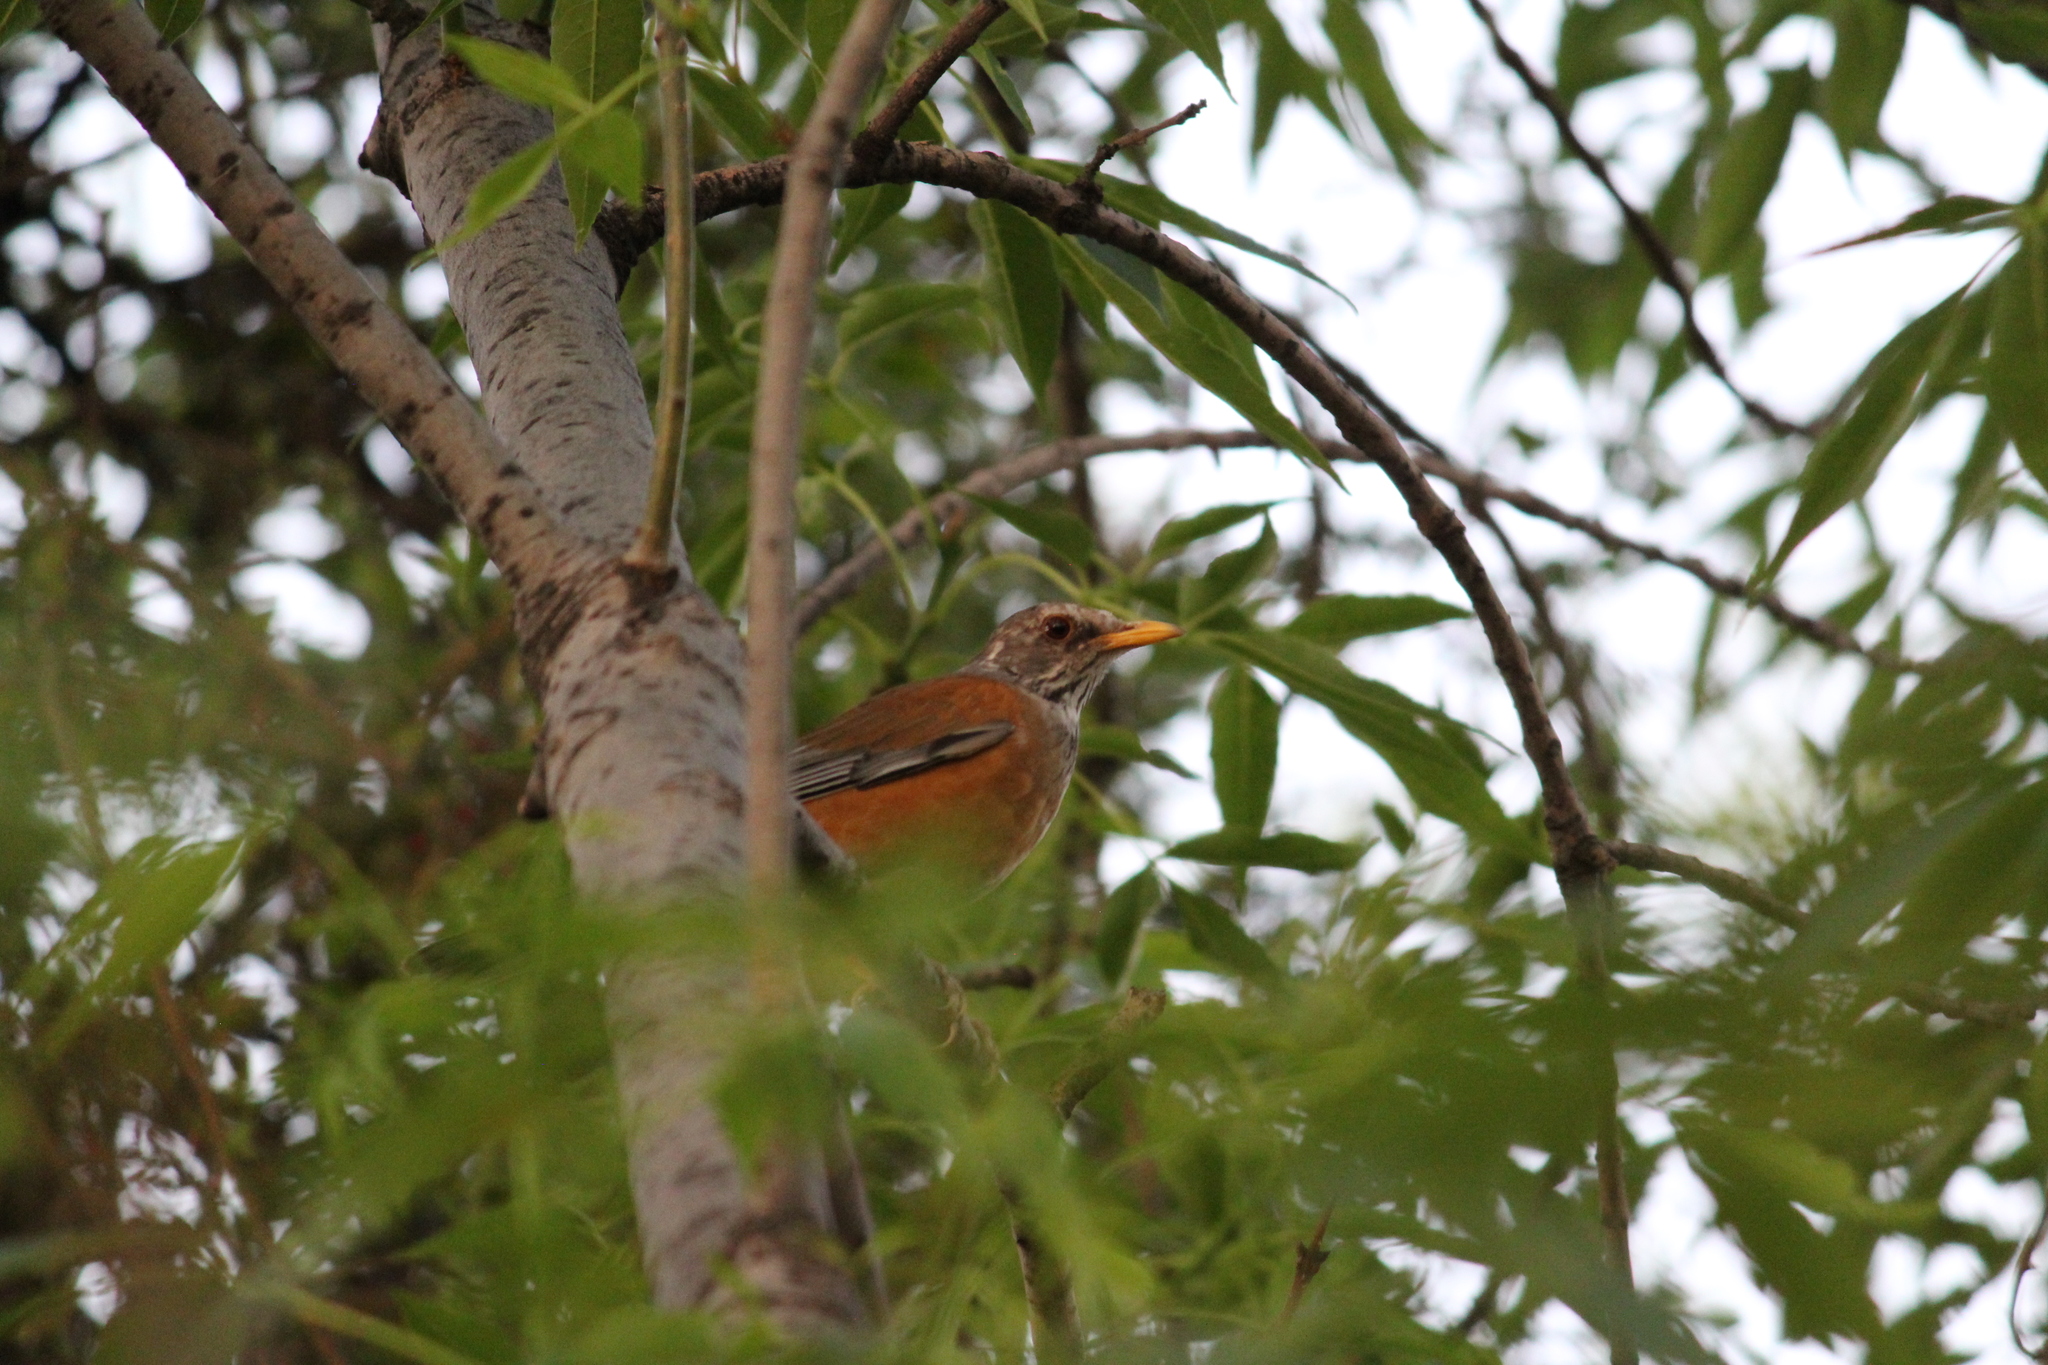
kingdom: Animalia
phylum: Chordata
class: Aves
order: Passeriformes
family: Turdidae
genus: Turdus
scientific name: Turdus rufopalliatus
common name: Rufous-backed robin
